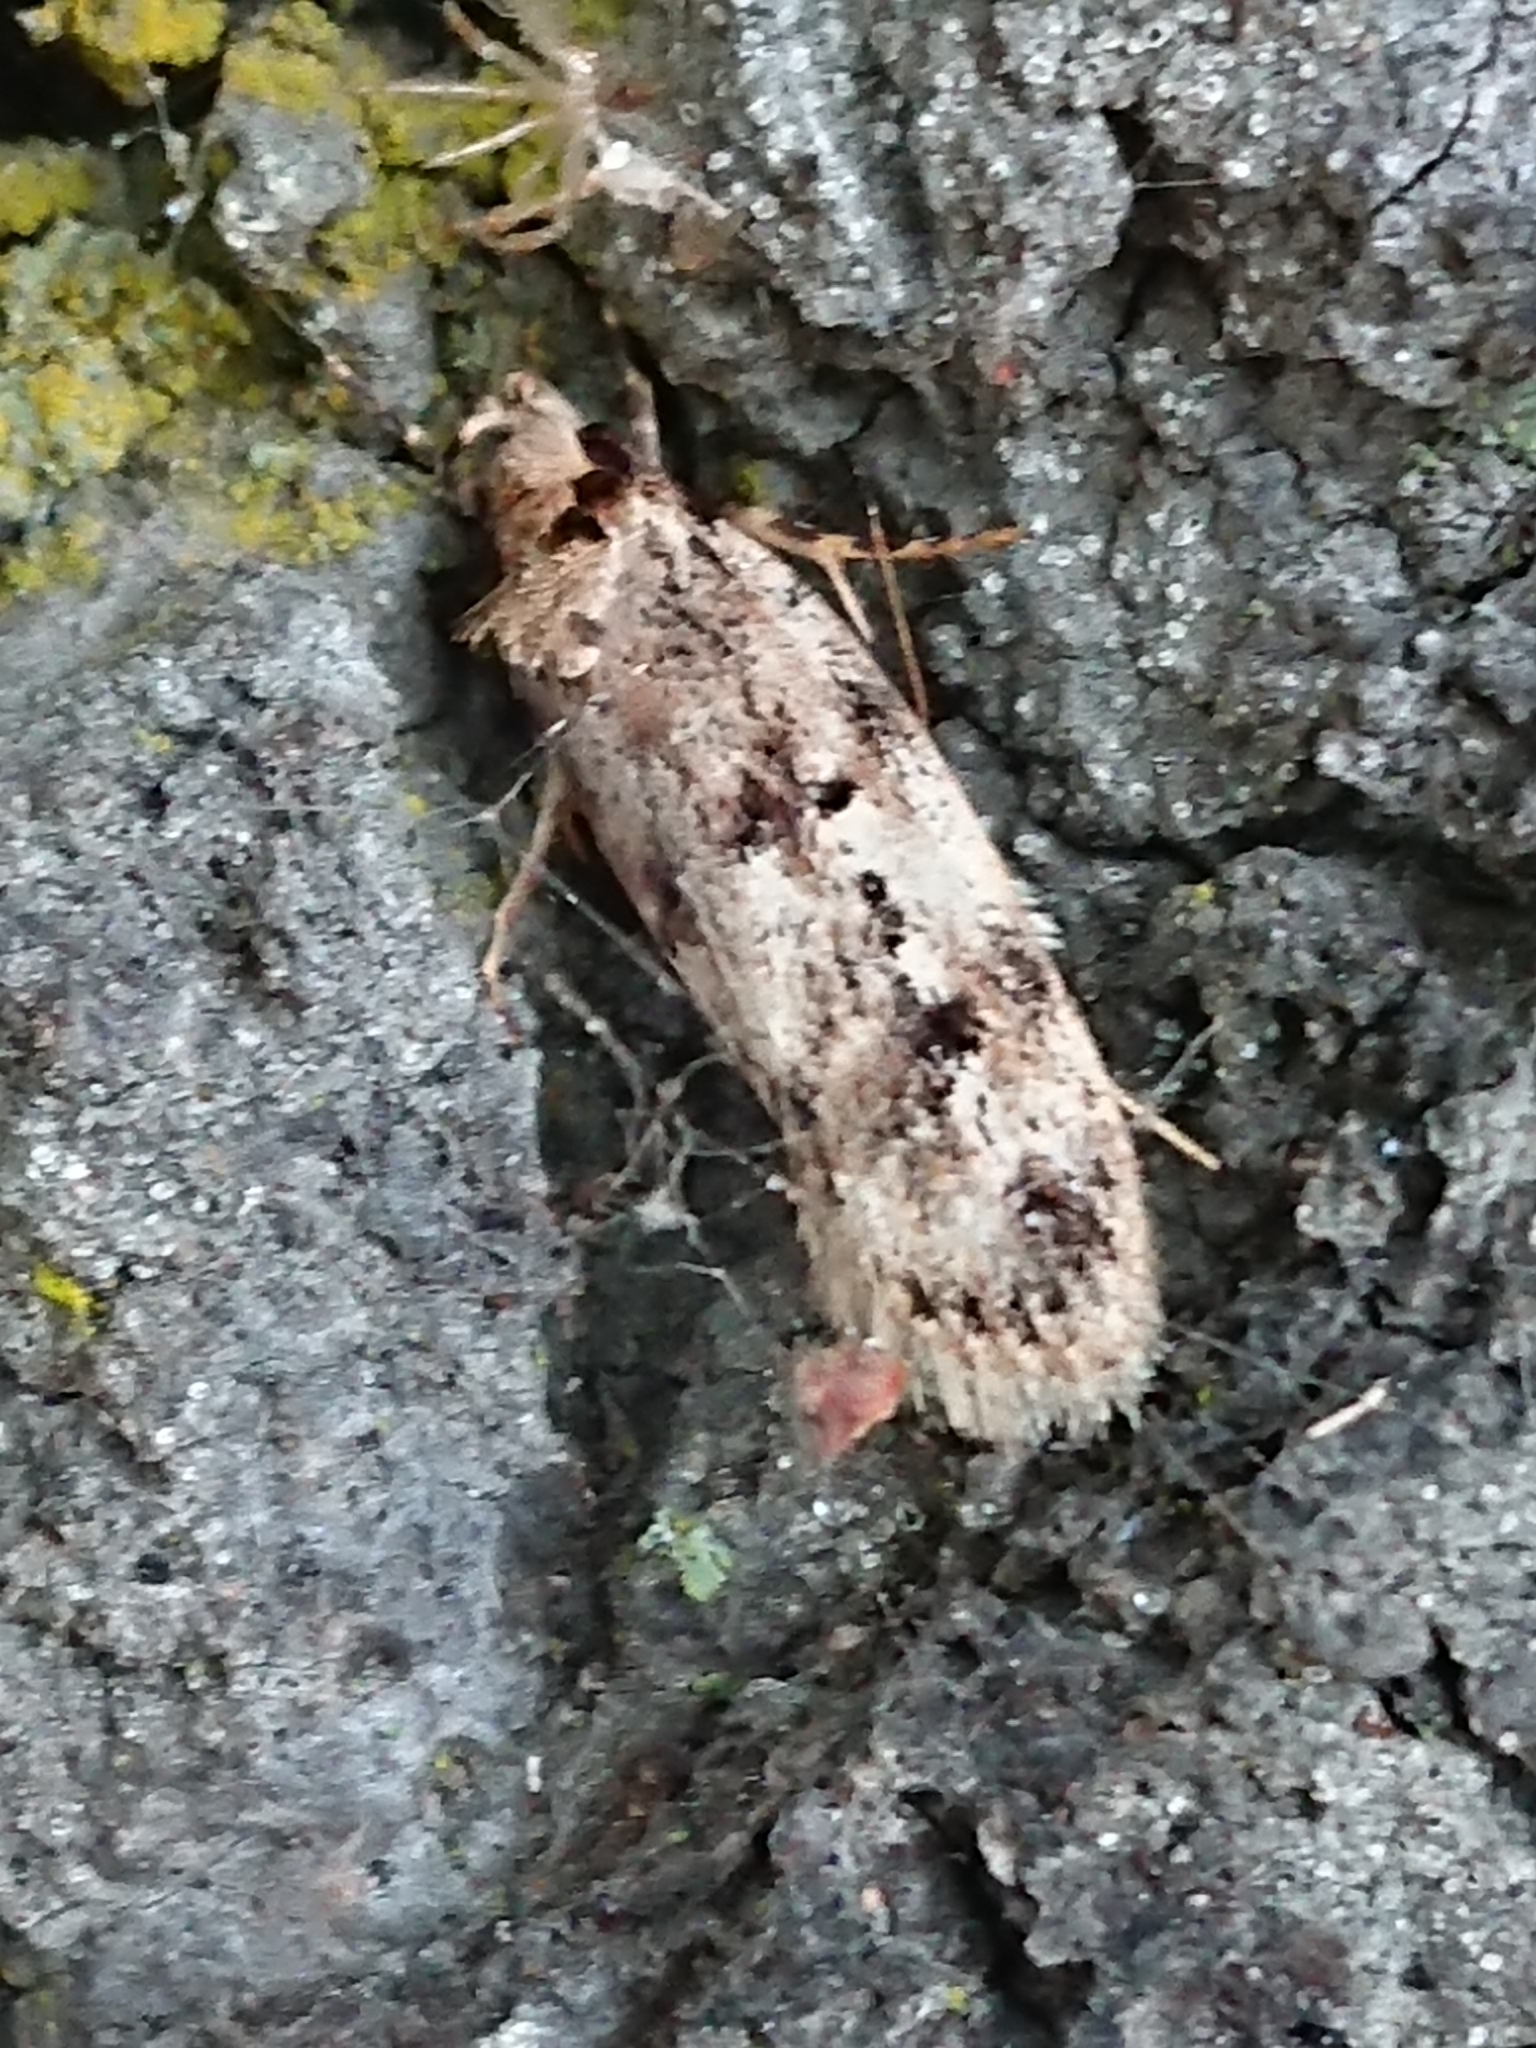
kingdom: Animalia
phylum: Arthropoda
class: Insecta
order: Lepidoptera
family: Oecophoridae
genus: Barea
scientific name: Barea exarcha
